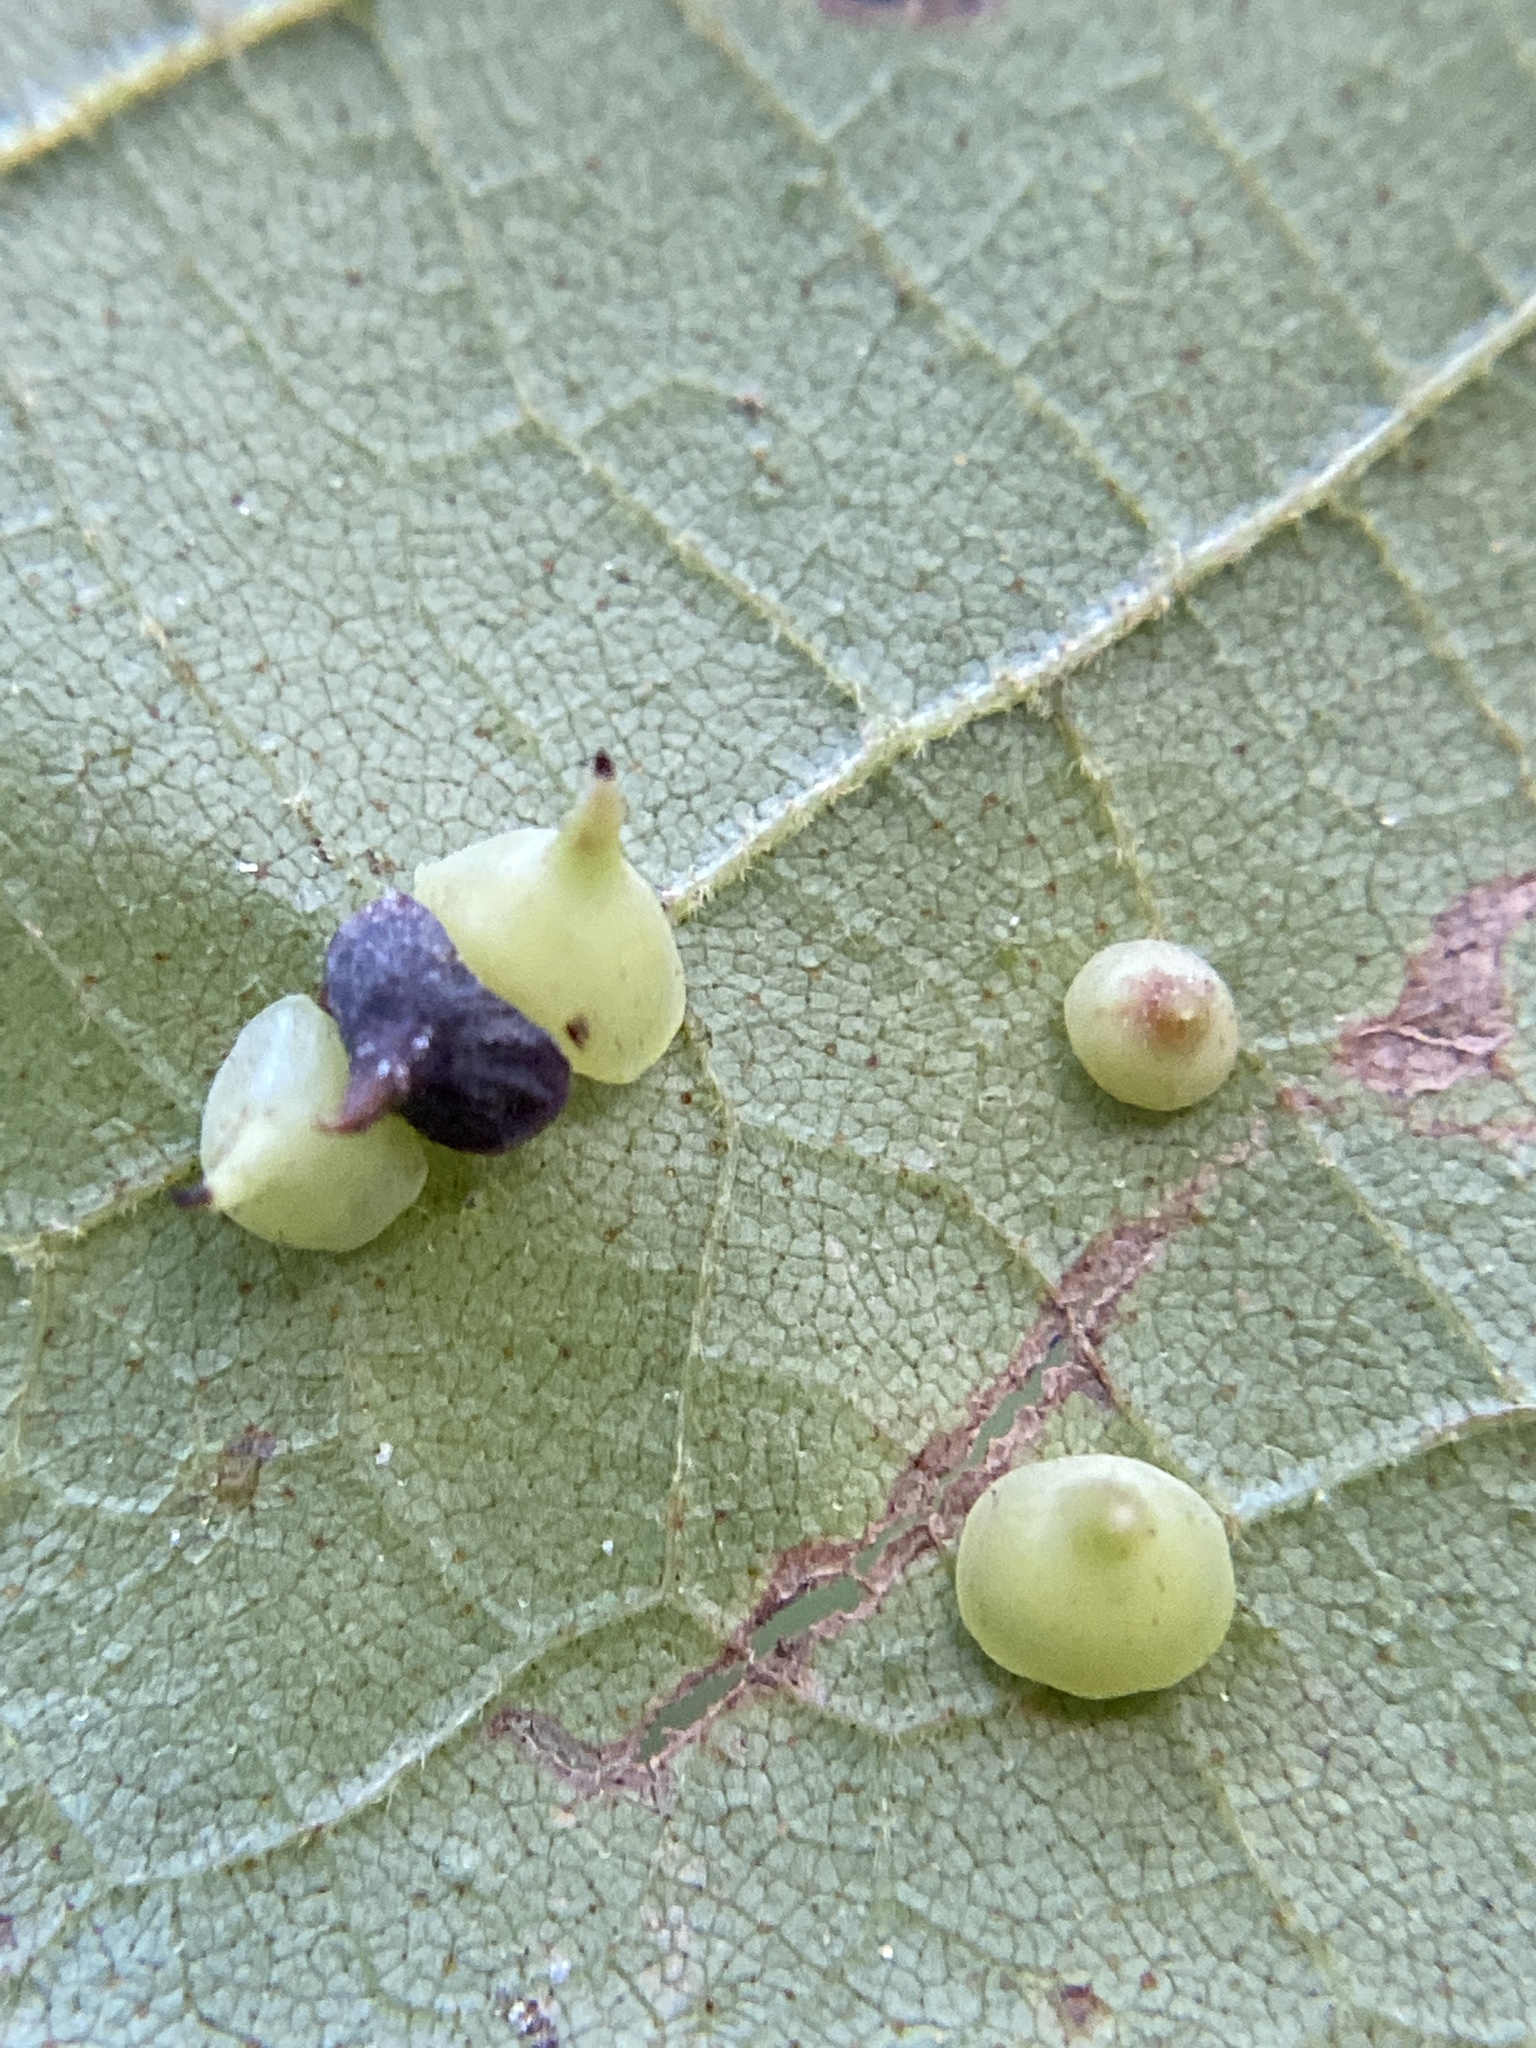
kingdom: Animalia
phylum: Arthropoda
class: Insecta
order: Diptera
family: Cecidomyiidae
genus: Caryomyia
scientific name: Caryomyia sanguinolenta
